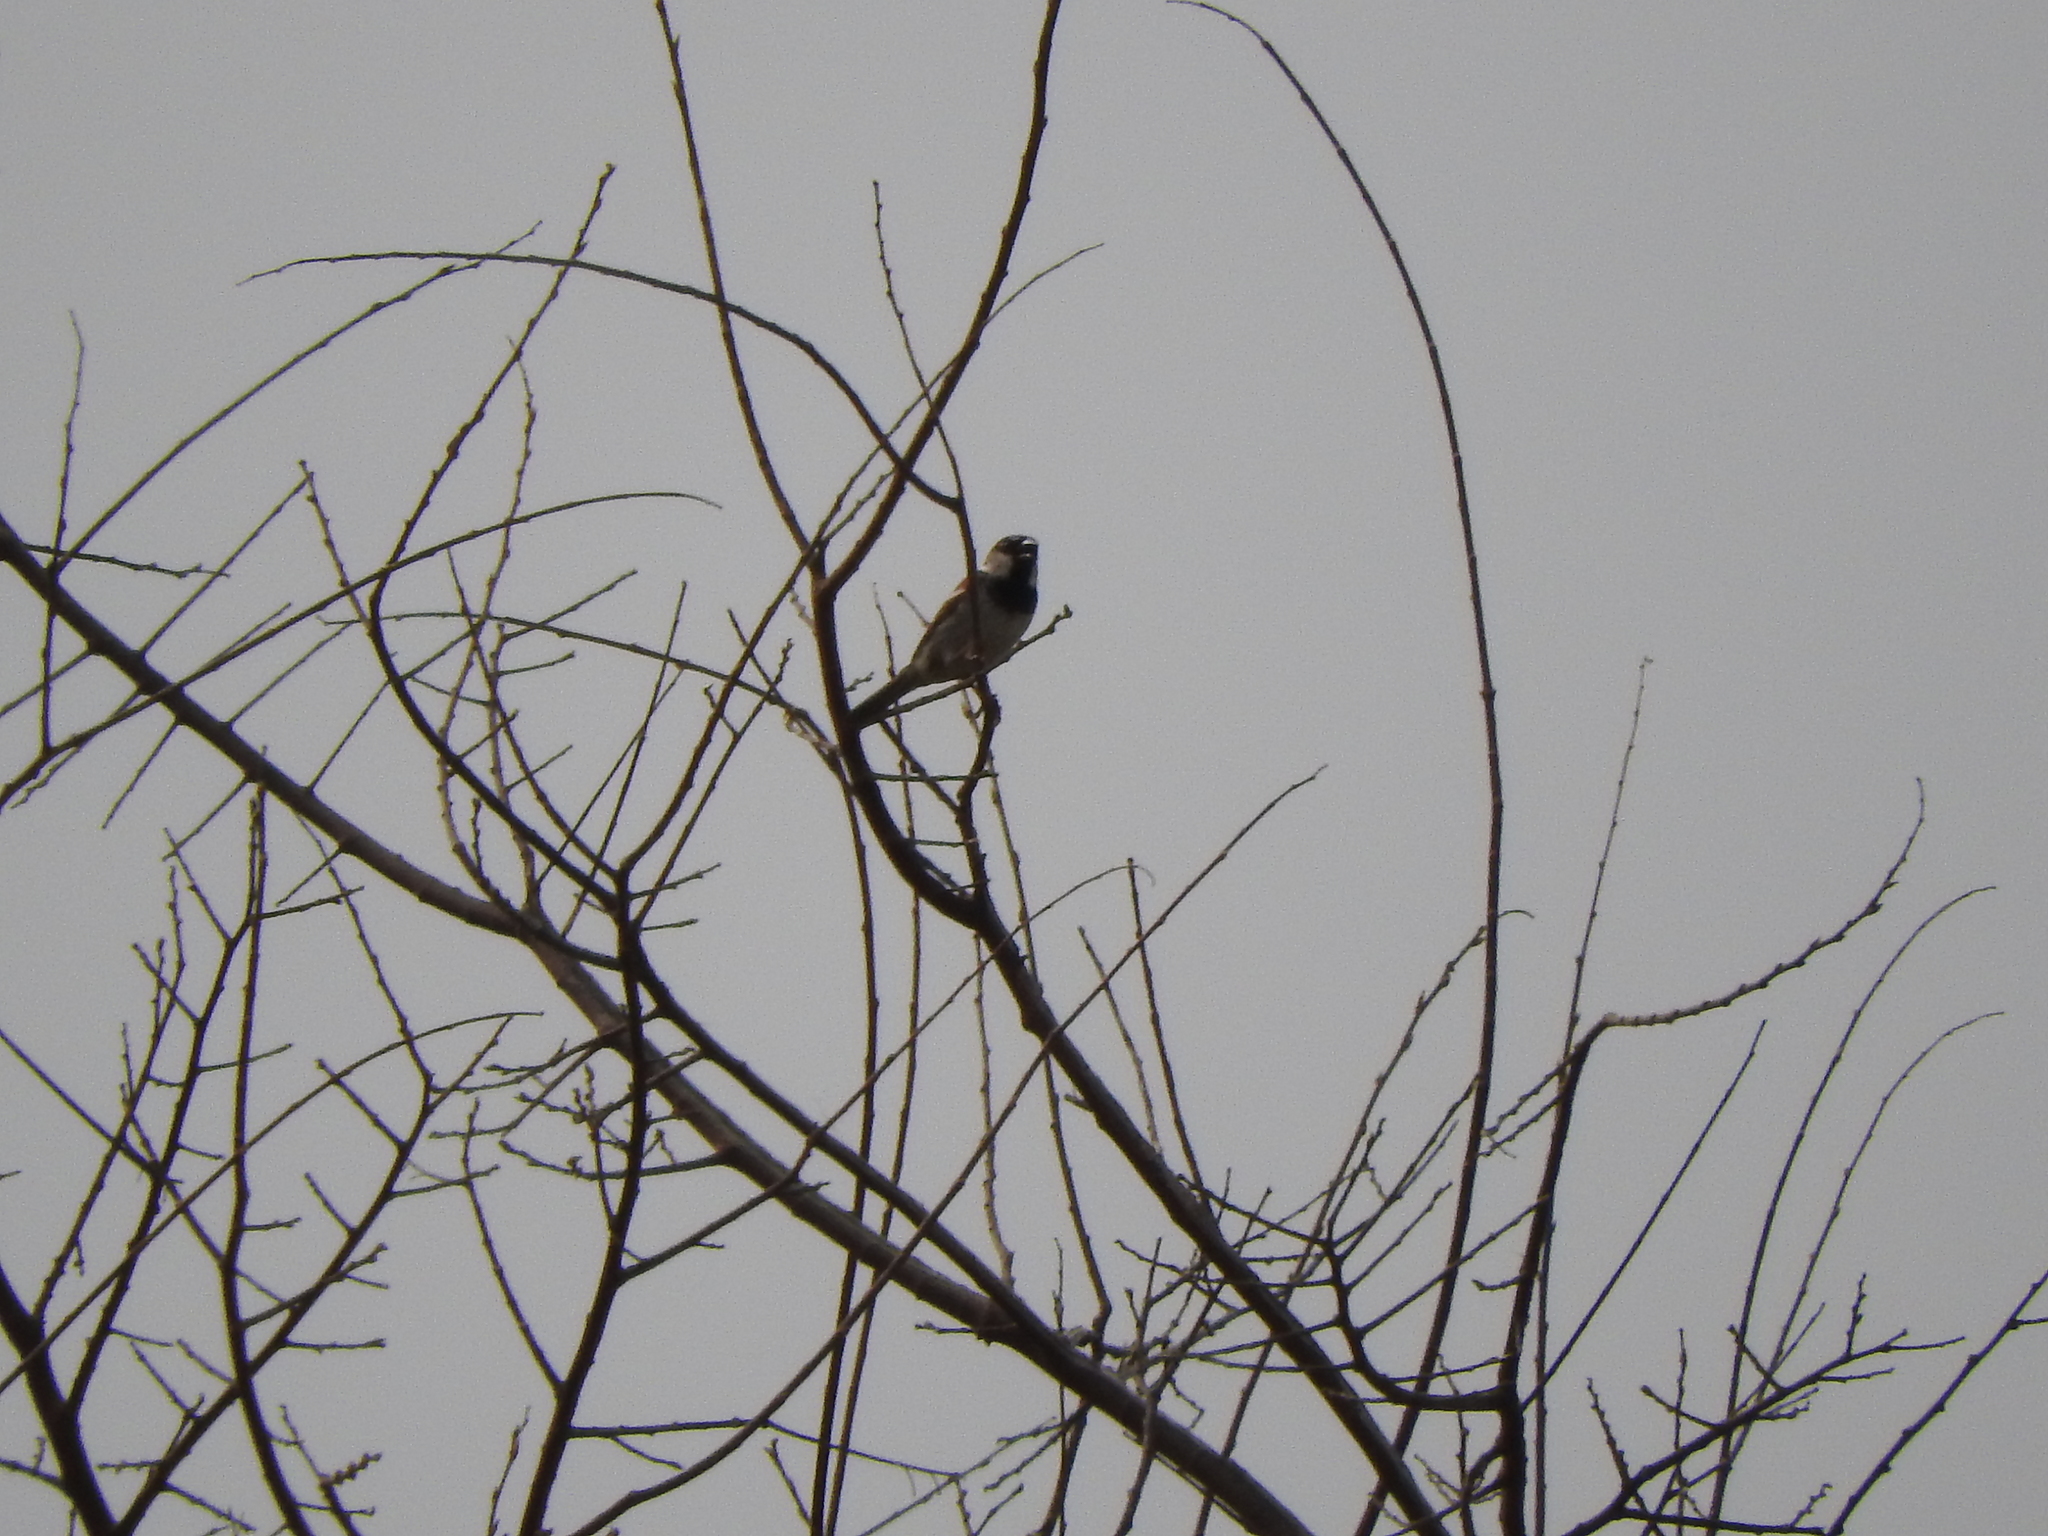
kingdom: Animalia
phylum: Chordata
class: Aves
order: Passeriformes
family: Passeridae
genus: Passer
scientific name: Passer domesticus
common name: House sparrow
